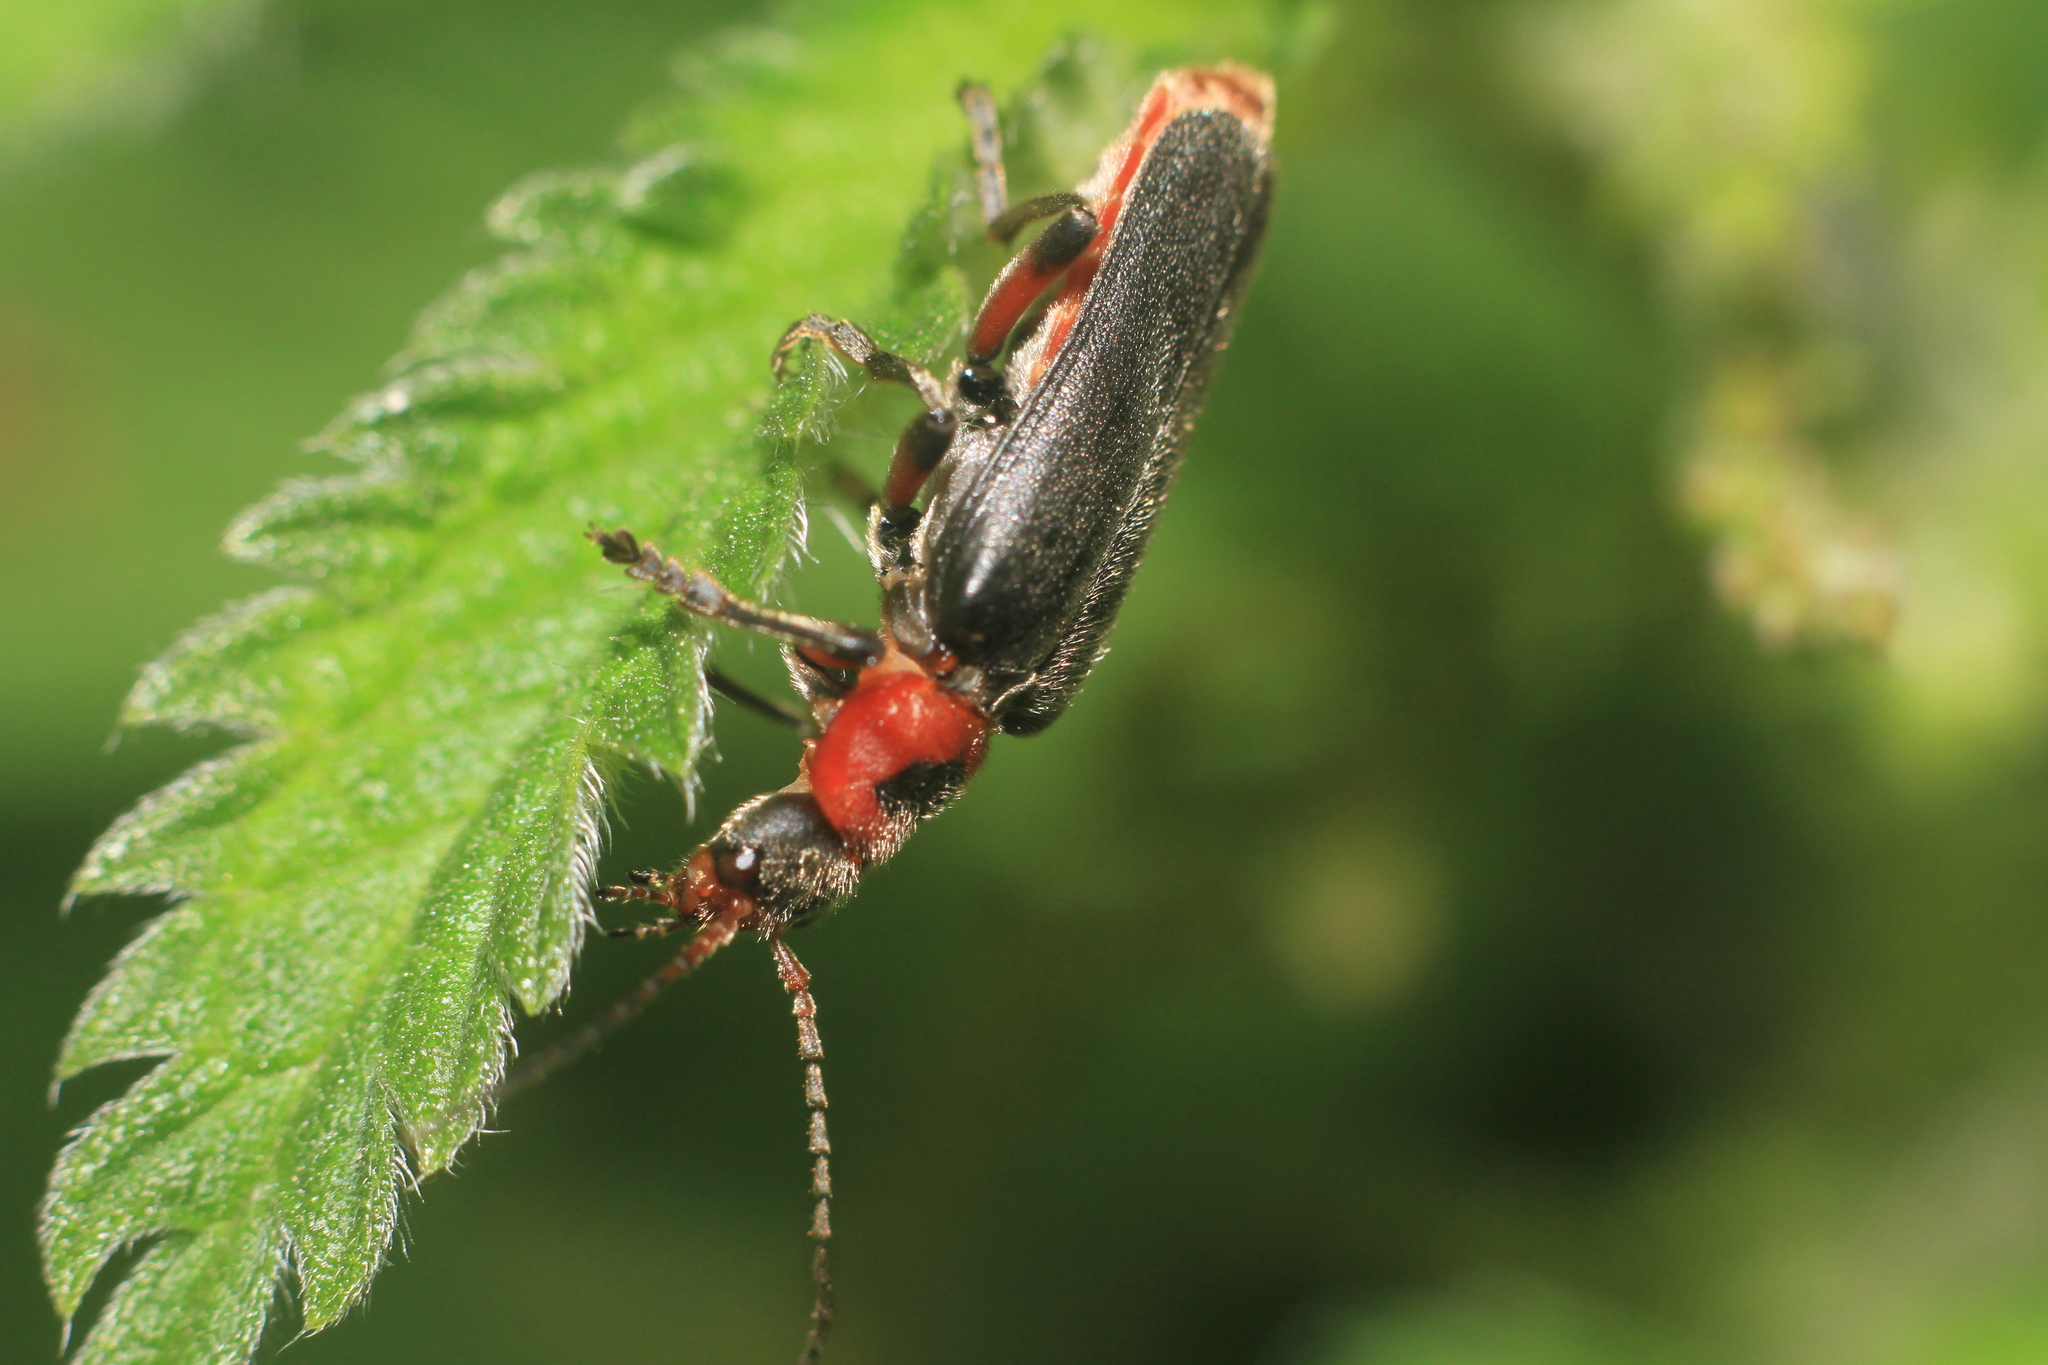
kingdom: Animalia
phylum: Arthropoda
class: Insecta
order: Coleoptera
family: Cantharidae
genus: Cantharis
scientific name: Cantharis rustica
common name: Soldier beetle
